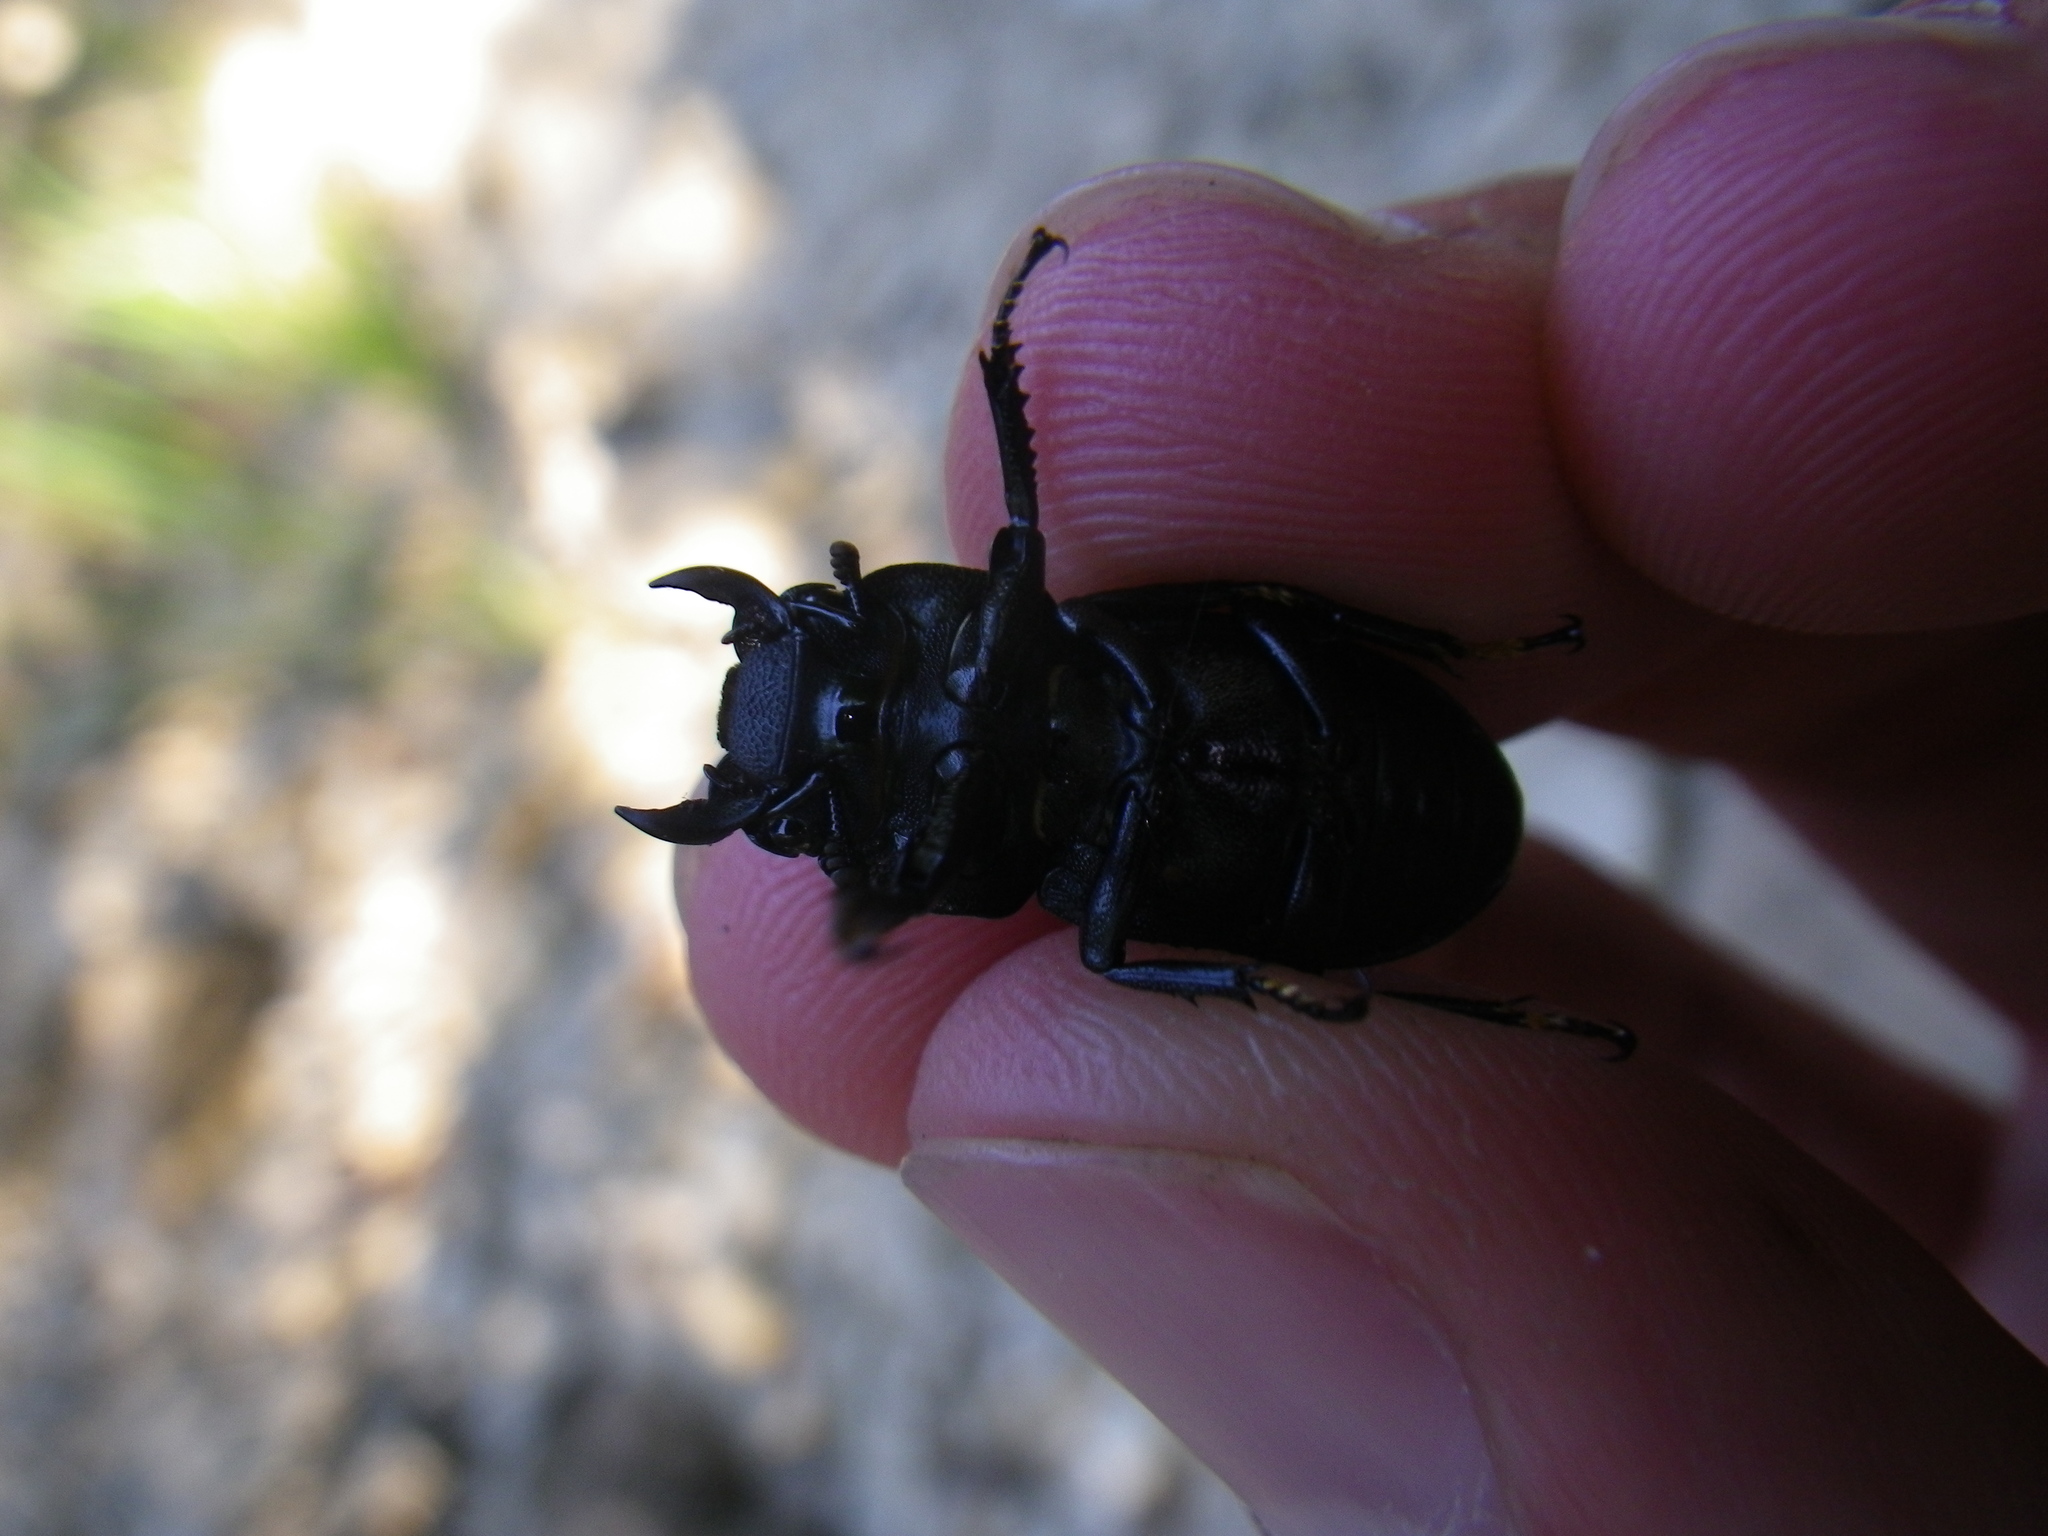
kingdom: Animalia
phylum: Arthropoda
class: Insecta
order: Coleoptera
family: Lucanidae
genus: Dorcus
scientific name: Dorcus parallelipipedus
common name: Lesser stag beetle
